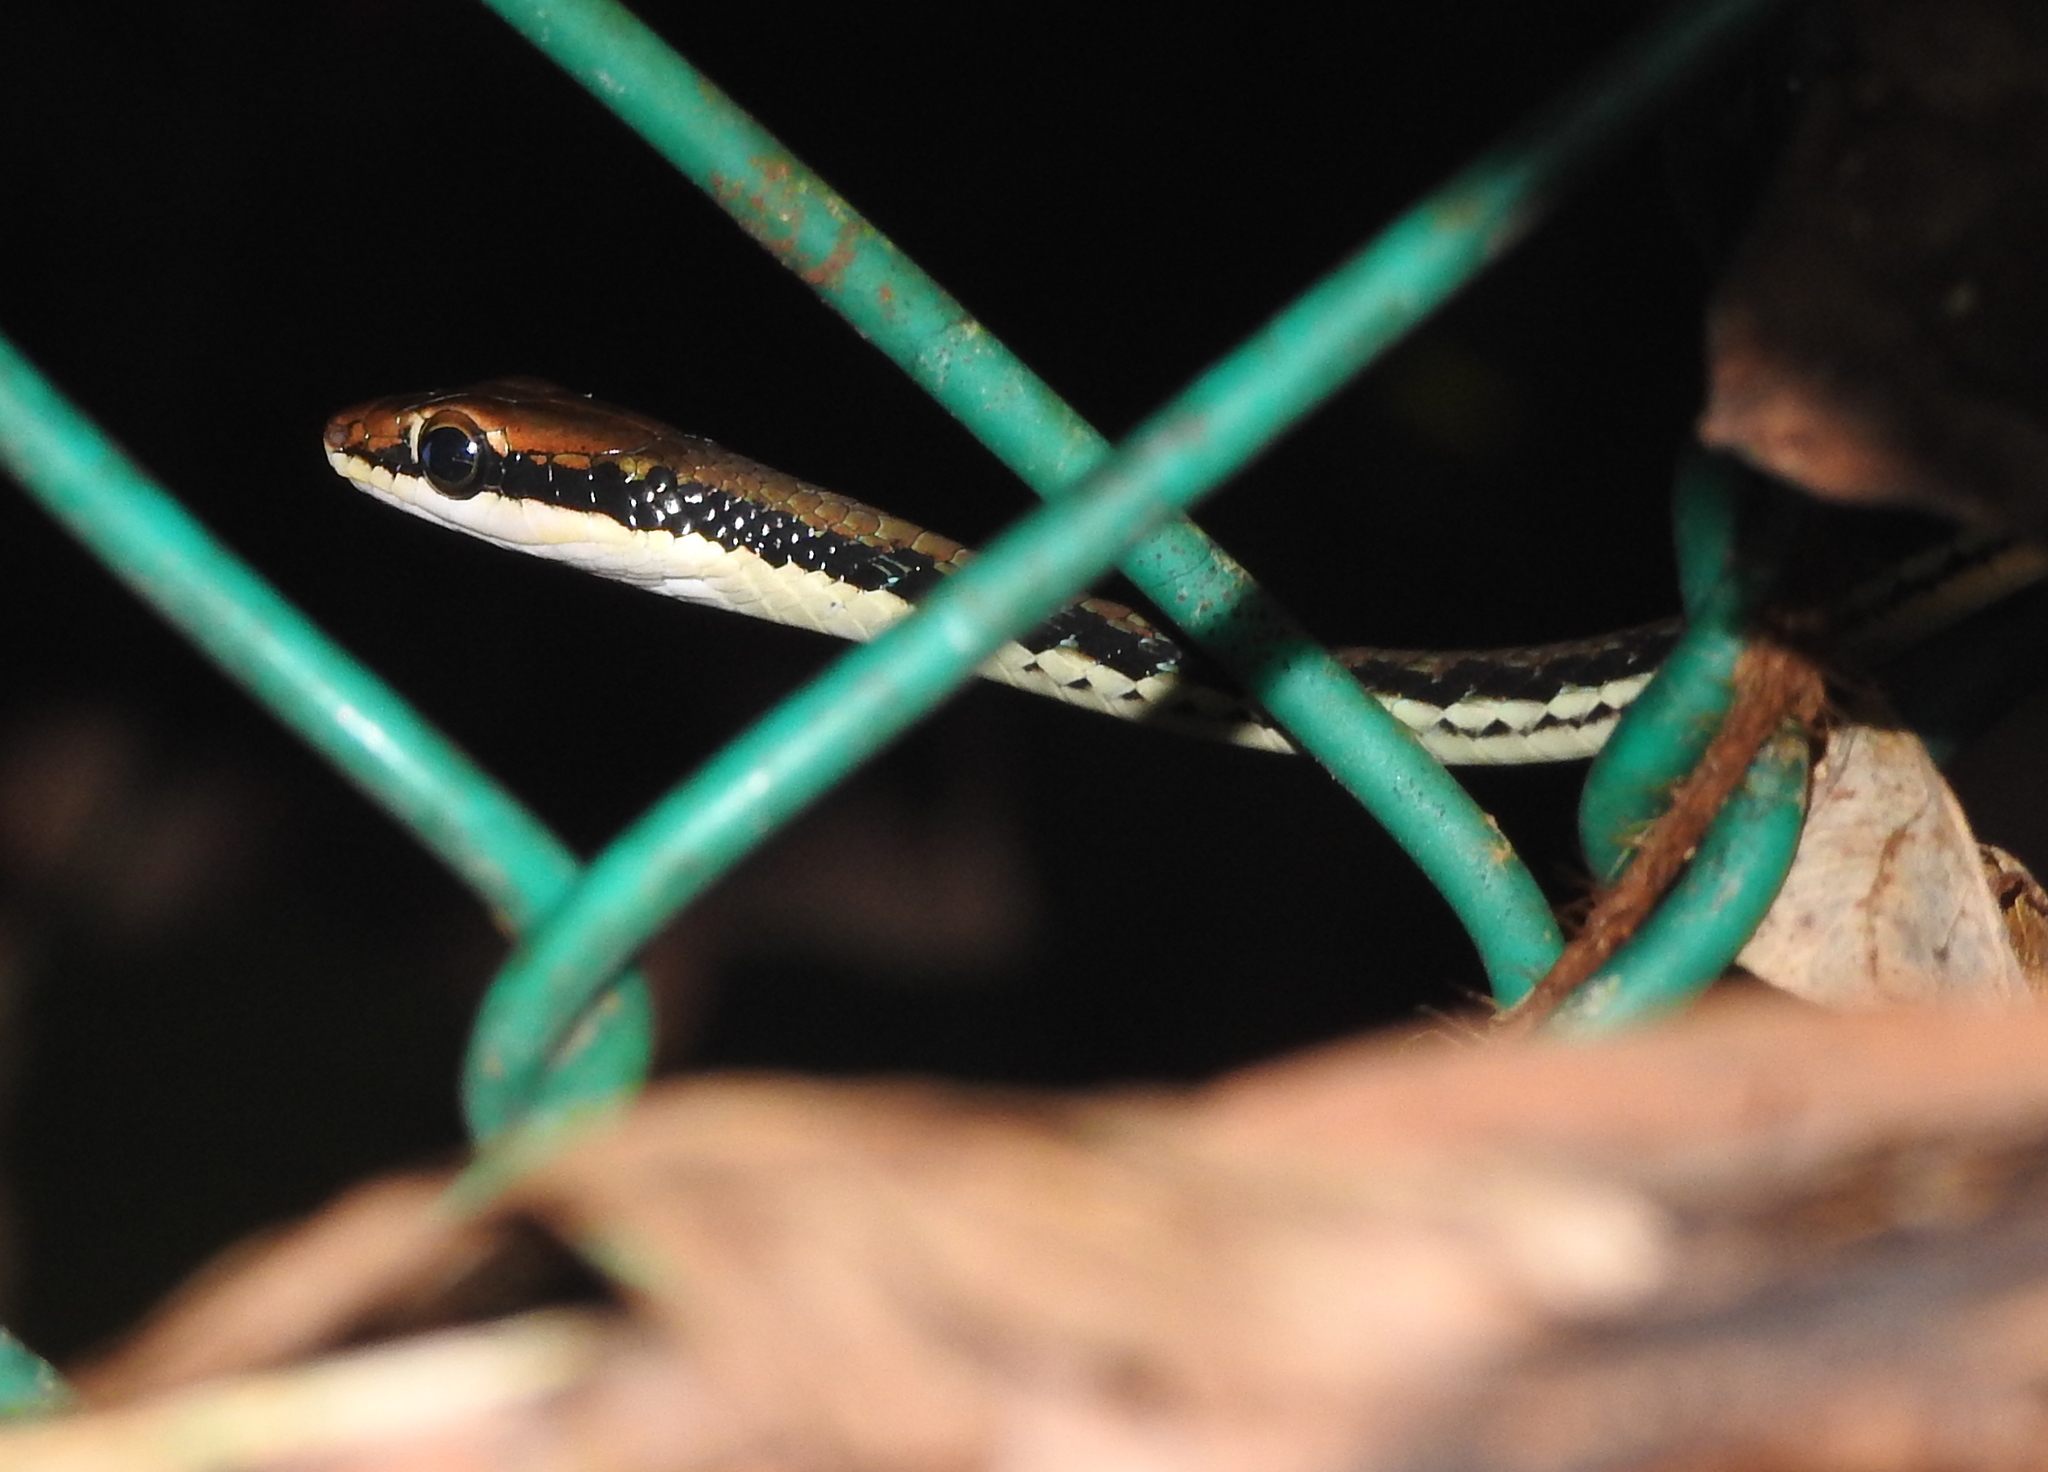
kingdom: Animalia
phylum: Chordata
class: Squamata
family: Colubridae
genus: Dendrelaphis
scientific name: Dendrelaphis pictus
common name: Indonesian bronze-back
